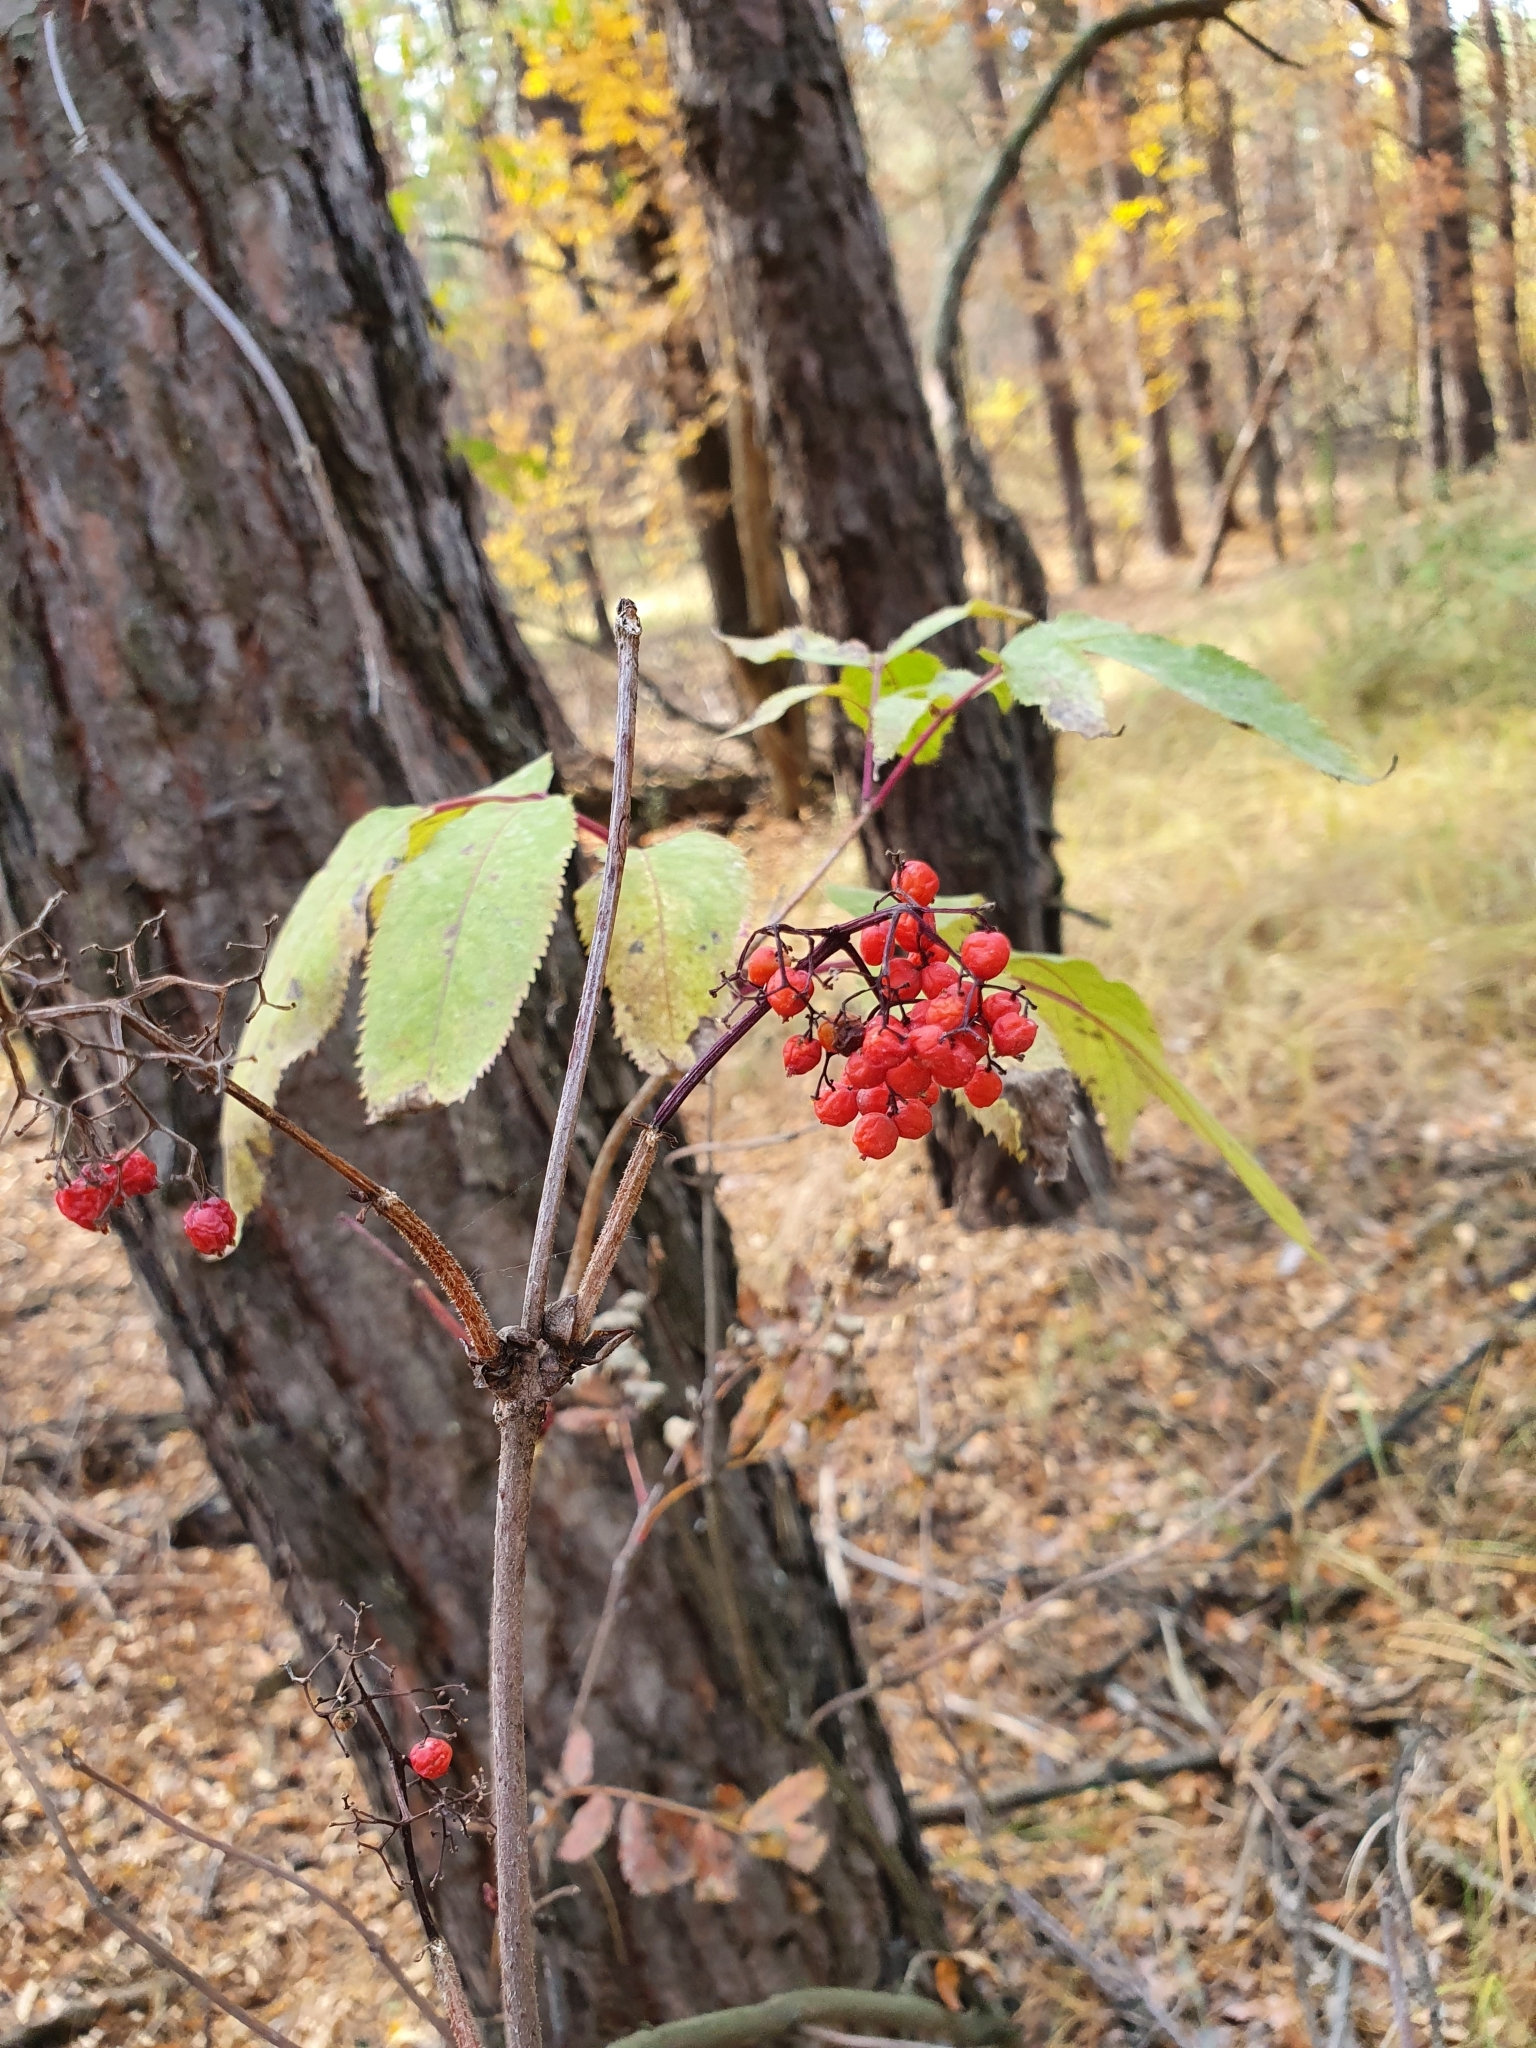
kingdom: Plantae
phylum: Tracheophyta
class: Magnoliopsida
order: Dipsacales
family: Viburnaceae
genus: Sambucus
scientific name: Sambucus racemosa
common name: Red-berried elder
